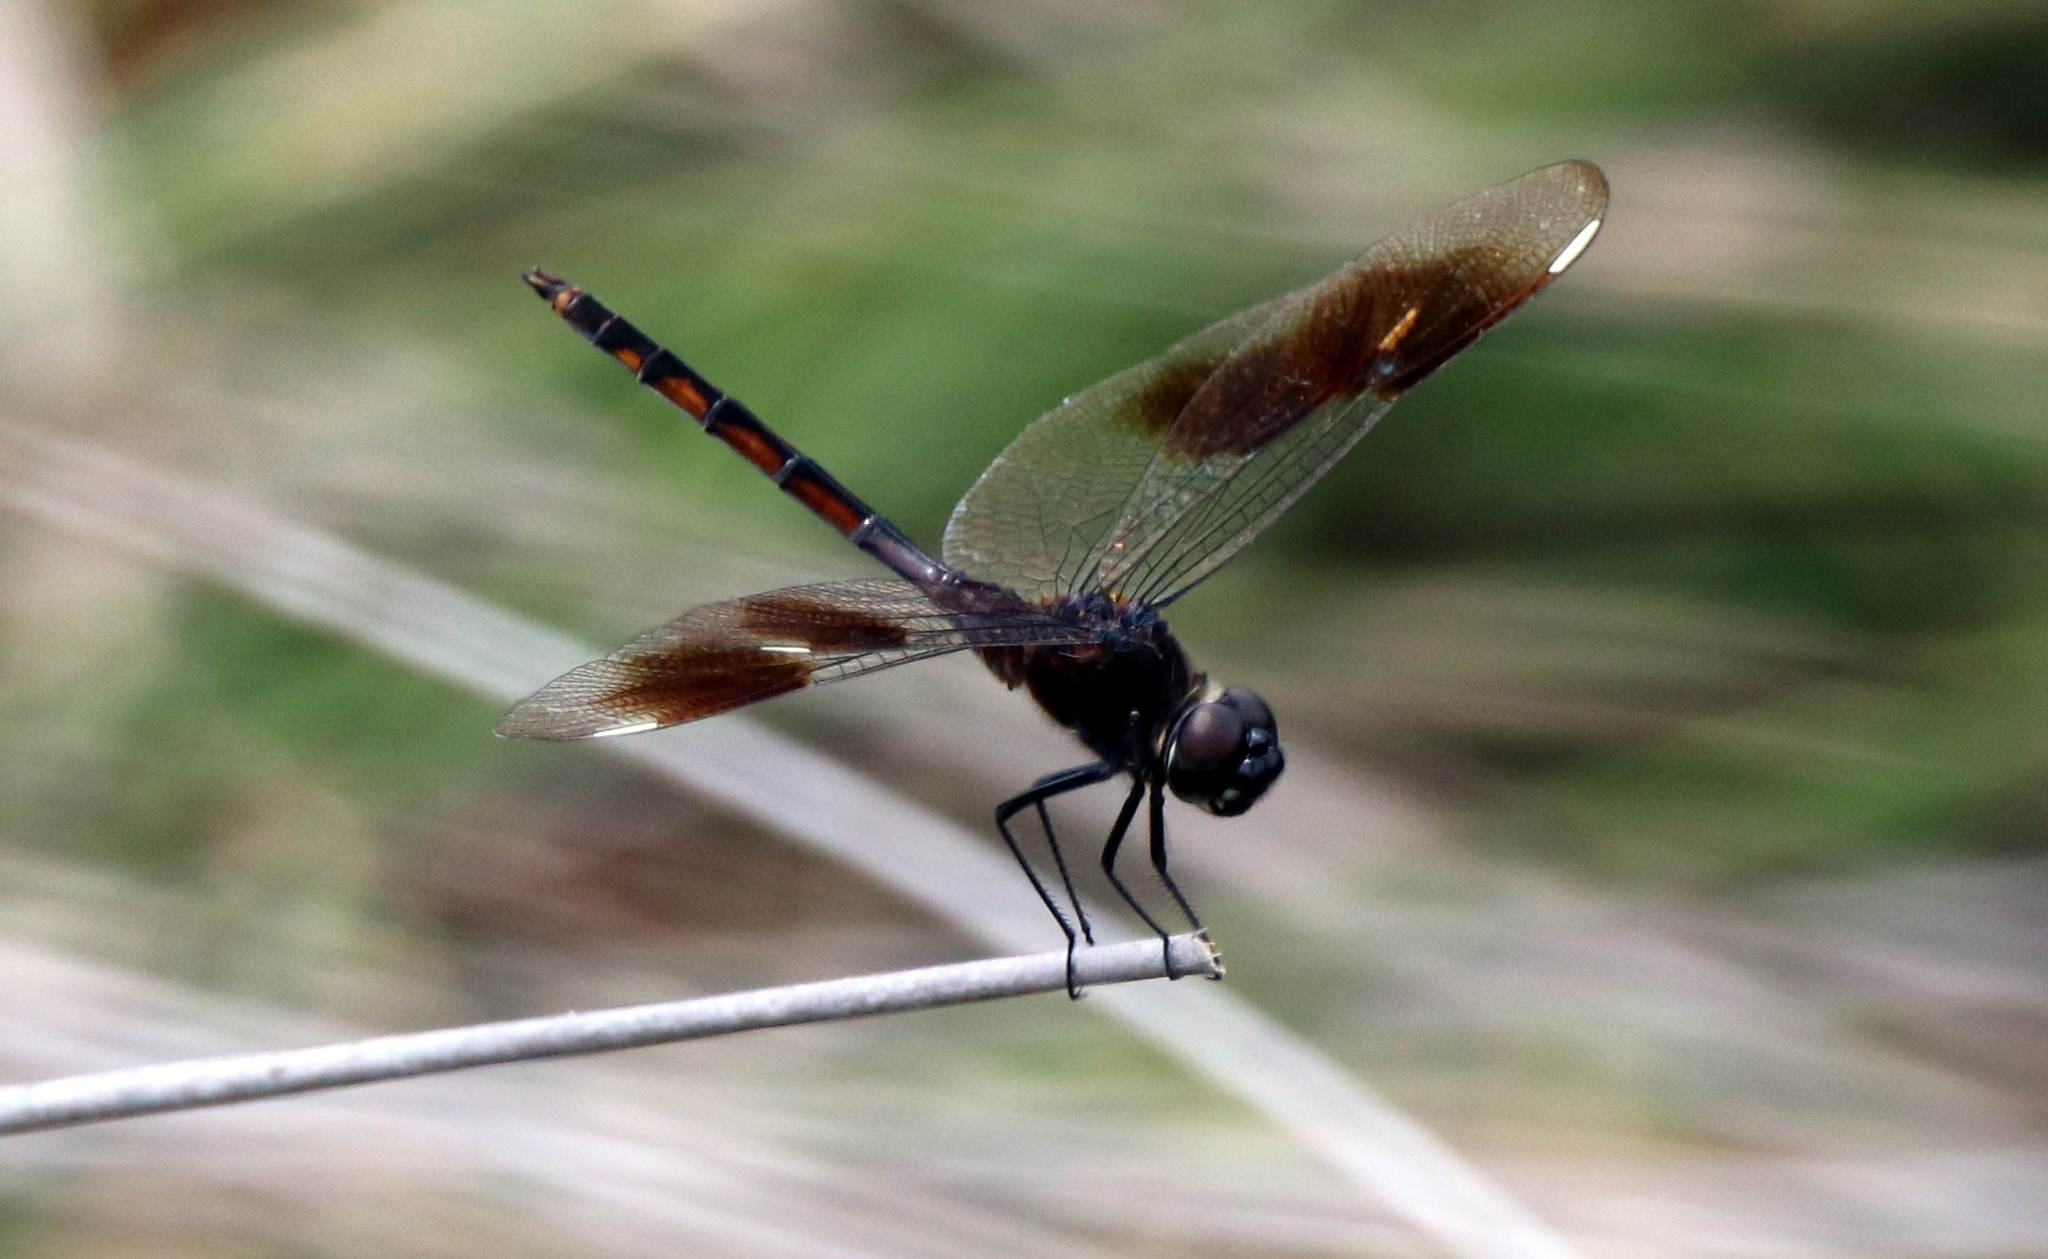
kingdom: Animalia
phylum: Arthropoda
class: Insecta
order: Odonata
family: Libellulidae
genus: Brachymesia
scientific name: Brachymesia gravida
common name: Four-spotted pennant
